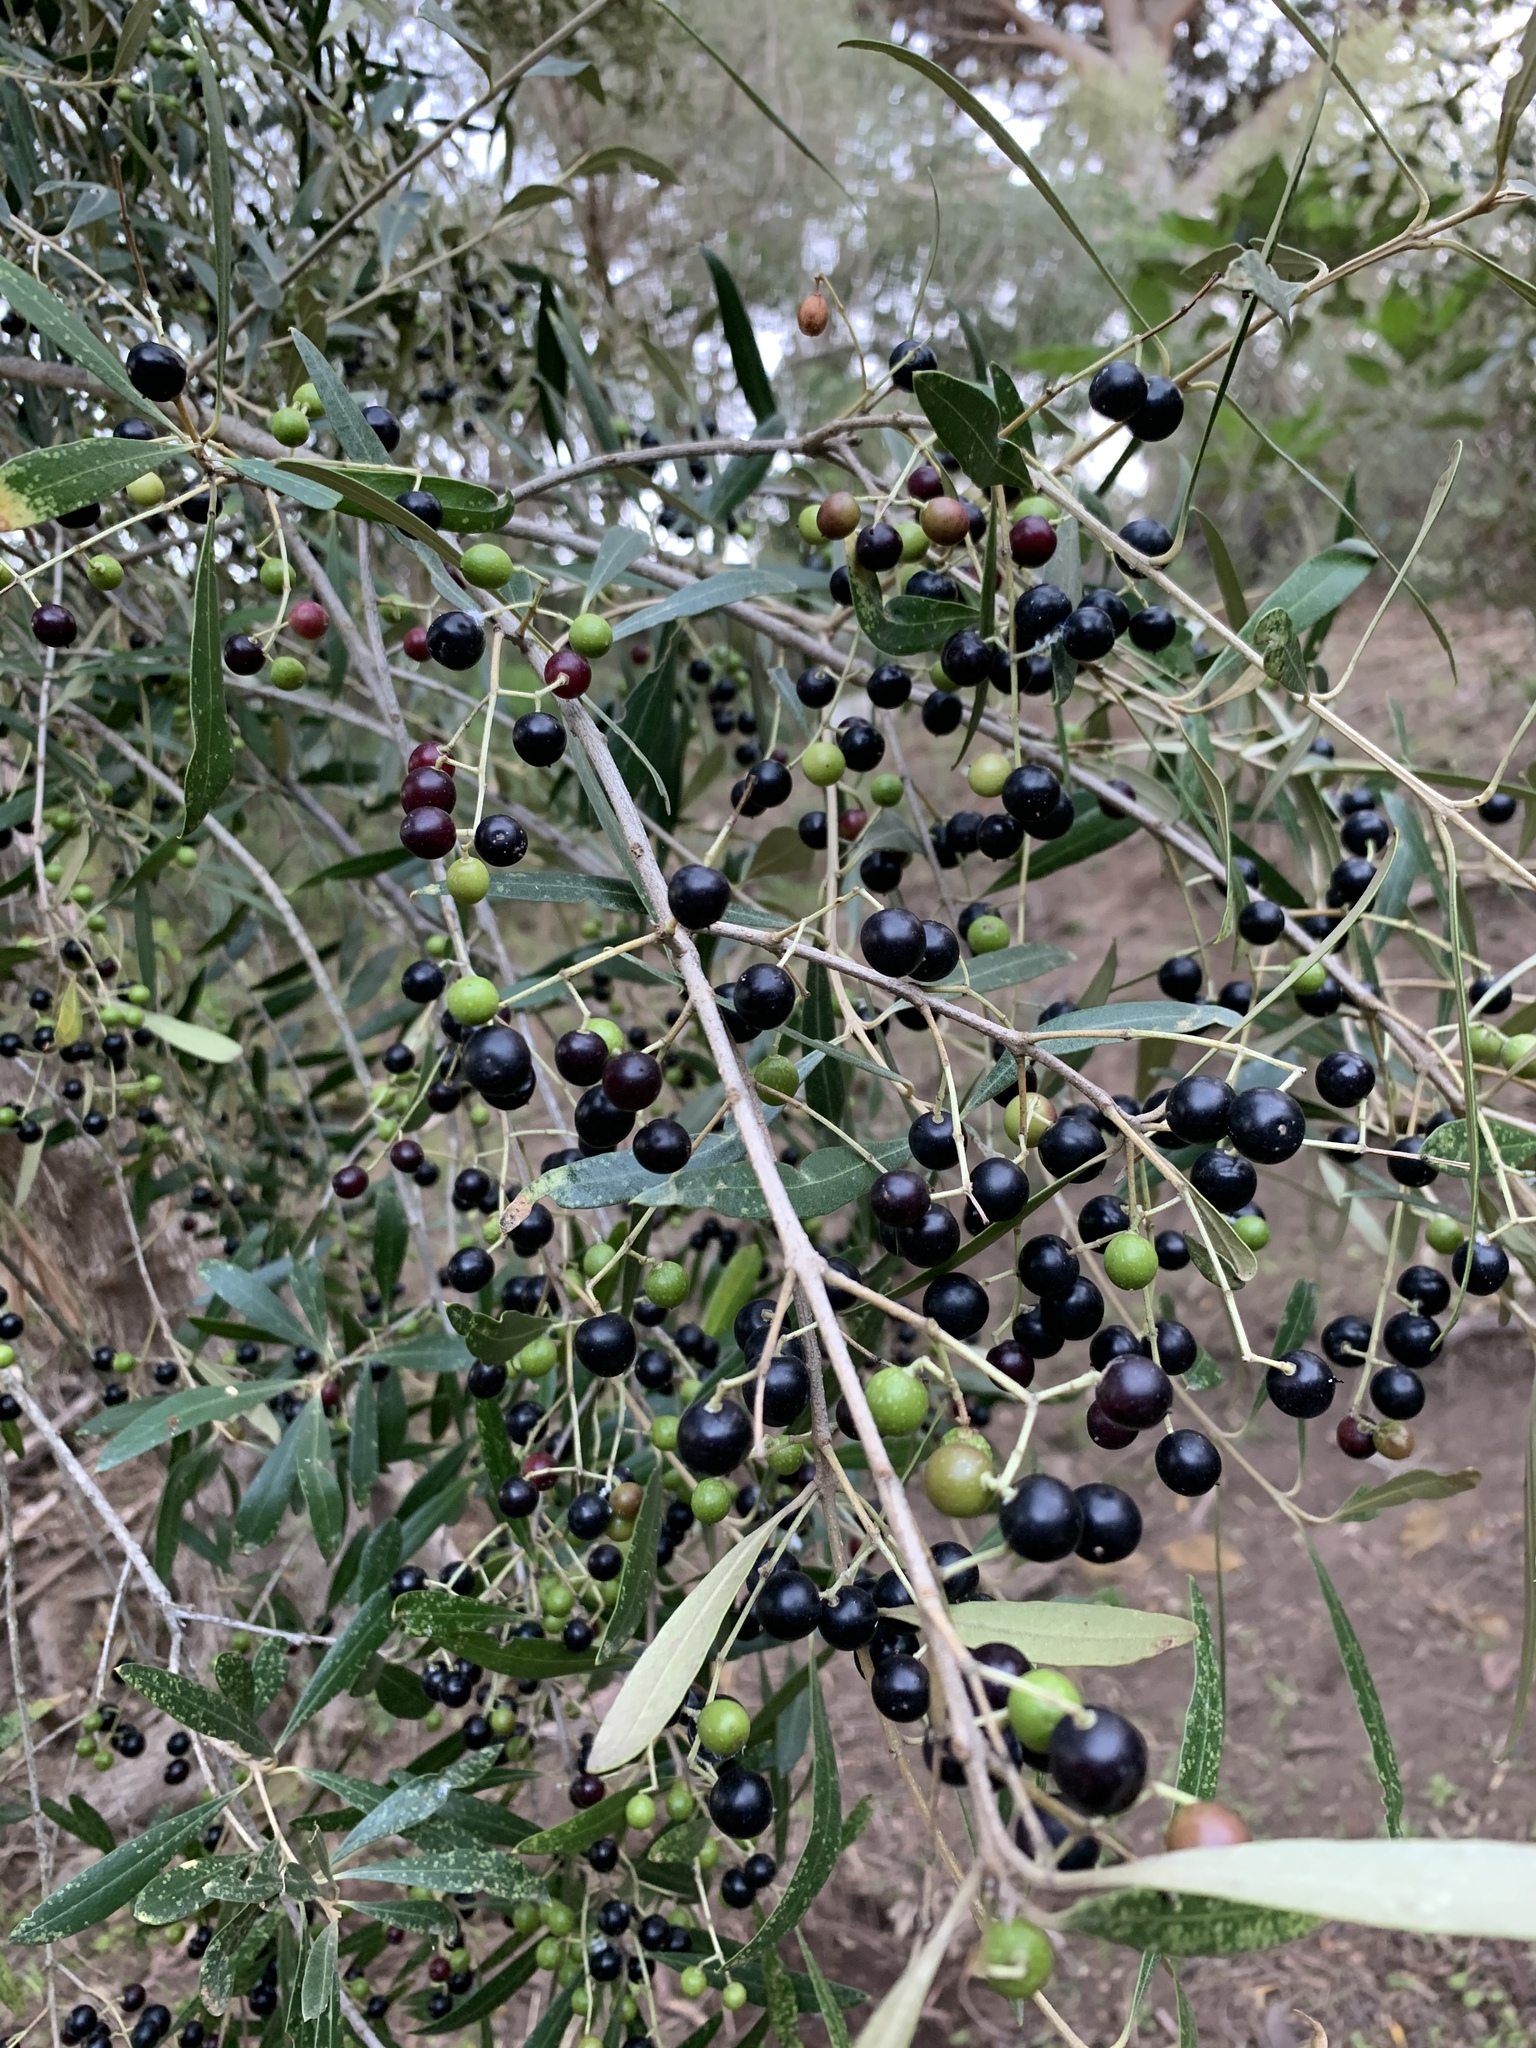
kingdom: Plantae
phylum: Tracheophyta
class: Magnoliopsida
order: Lamiales
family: Oleaceae
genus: Olea
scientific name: Olea europaea
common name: Olive
